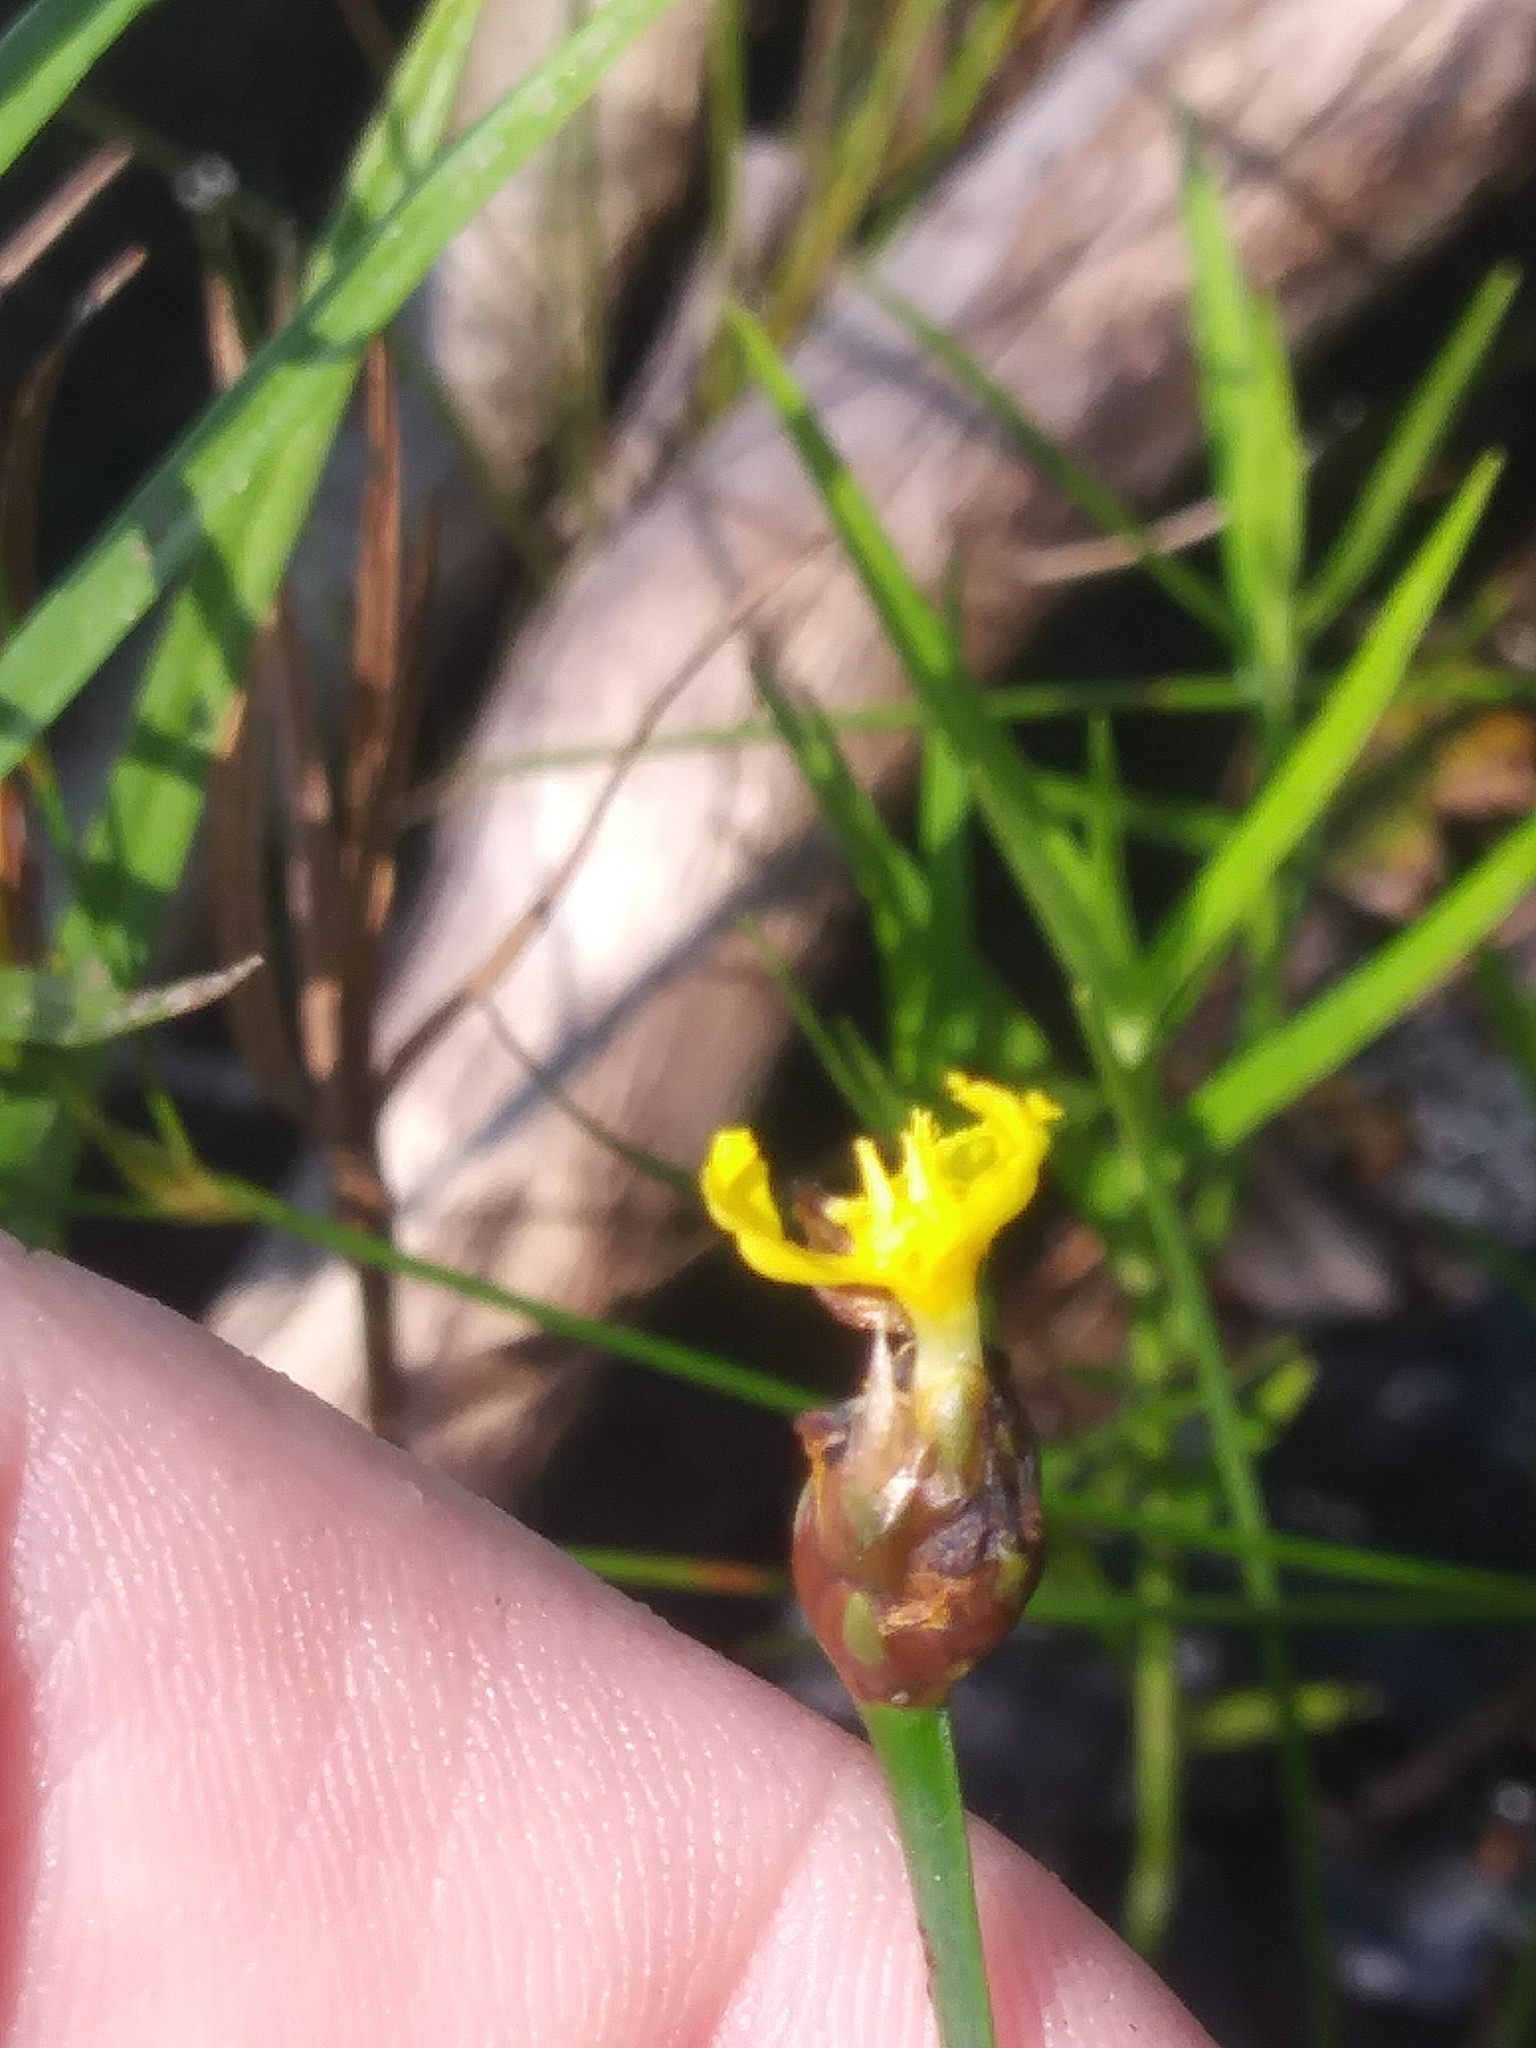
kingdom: Plantae
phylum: Tracheophyta
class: Liliopsida
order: Poales
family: Xyridaceae
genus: Xyris
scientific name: Xyris difformis
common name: Bog yellow-eyed-grass
